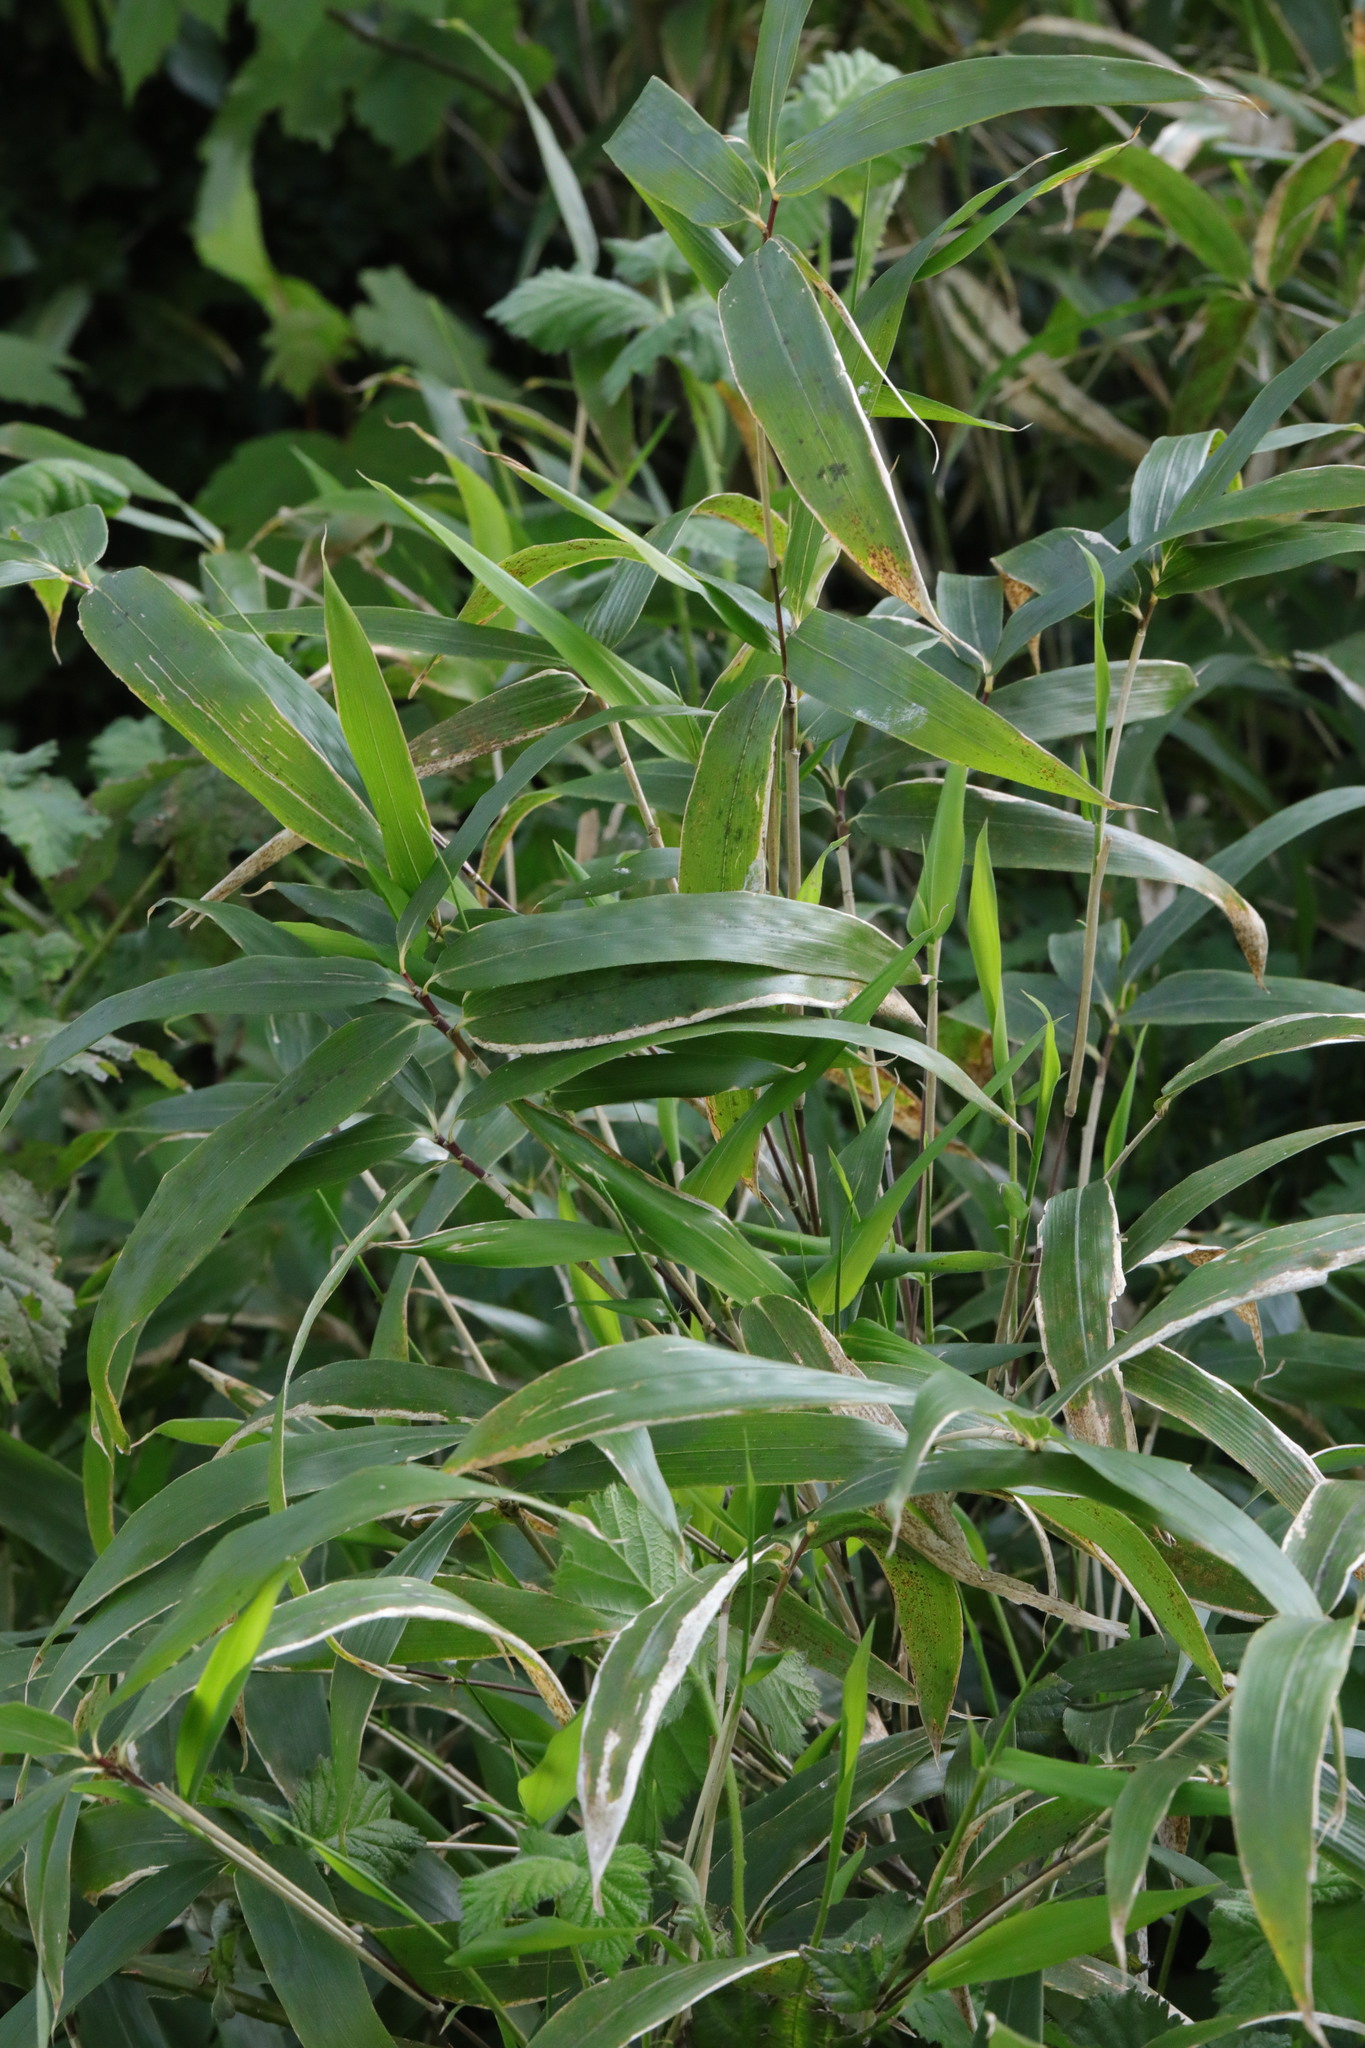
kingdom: Plantae
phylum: Tracheophyta
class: Liliopsida
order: Poales
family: Poaceae
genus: Pseudosasa
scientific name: Pseudosasa japonica
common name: Arrow bamboo
